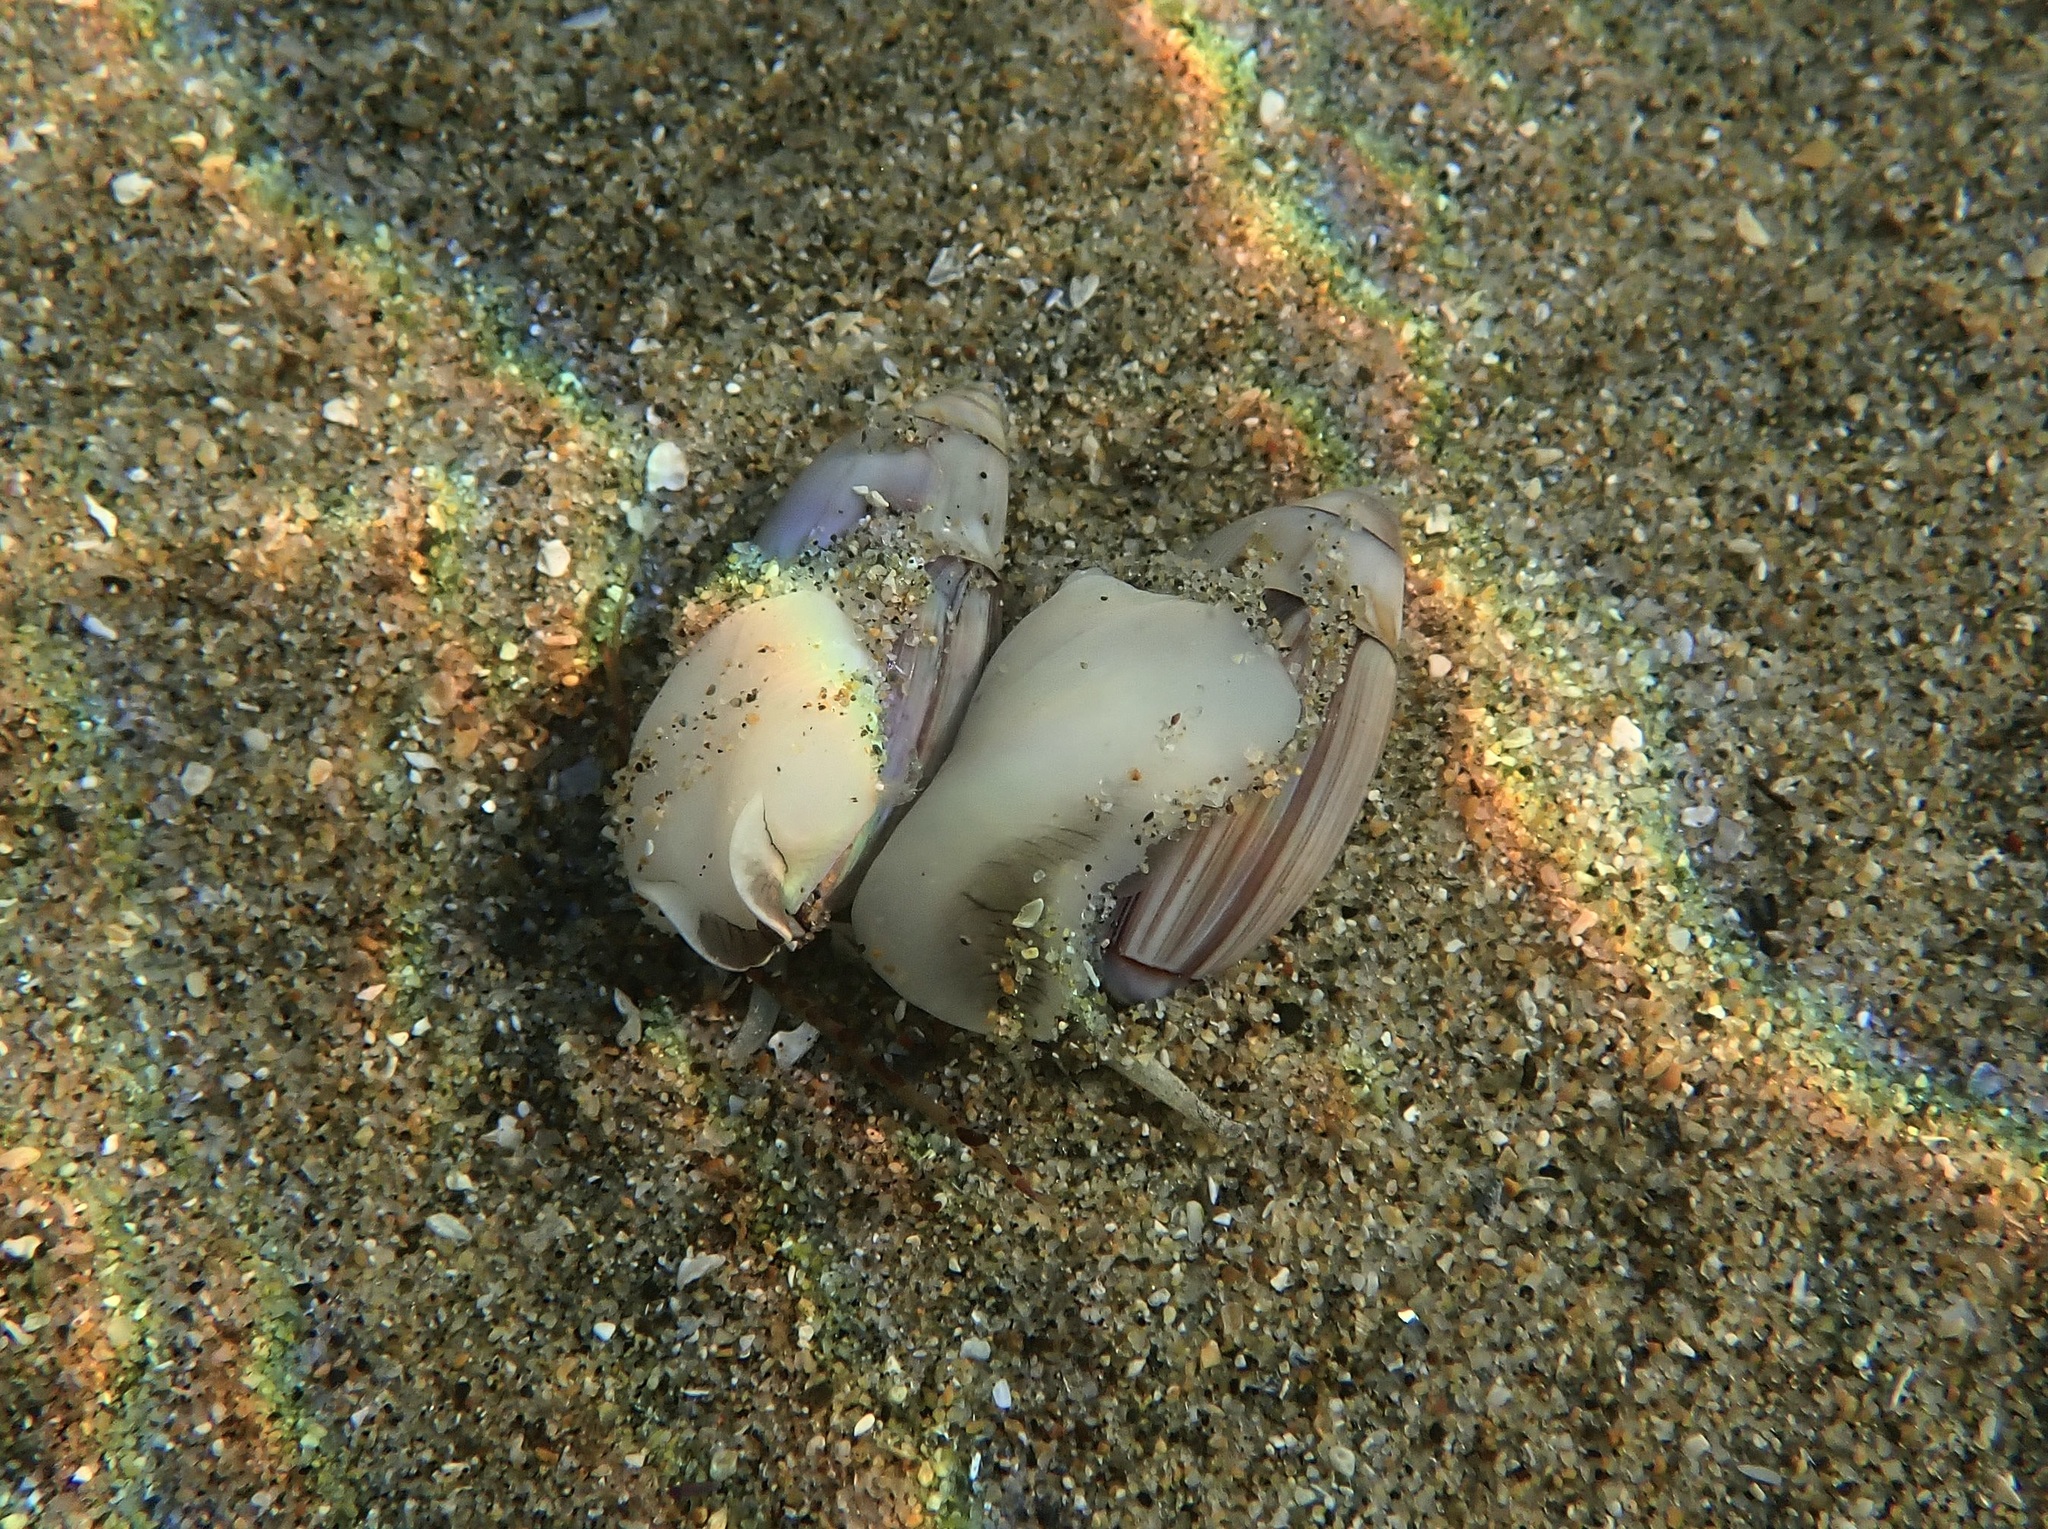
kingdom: Animalia
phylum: Mollusca
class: Gastropoda
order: Neogastropoda
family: Olividae
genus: Callianax
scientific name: Callianax biplicata
